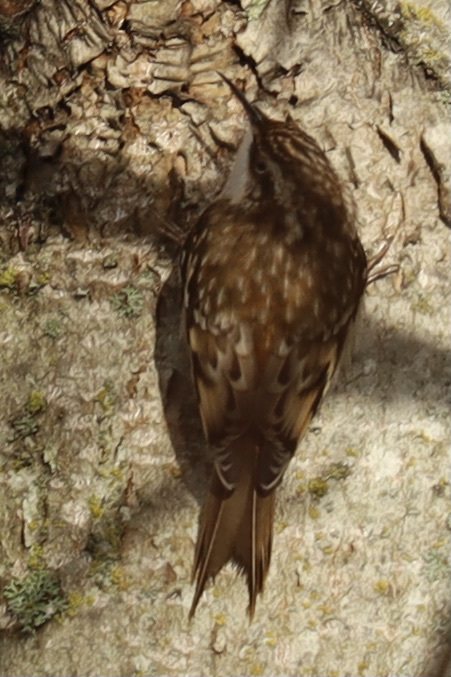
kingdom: Animalia
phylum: Chordata
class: Aves
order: Passeriformes
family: Certhiidae
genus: Certhia
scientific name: Certhia americana
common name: Brown creeper
